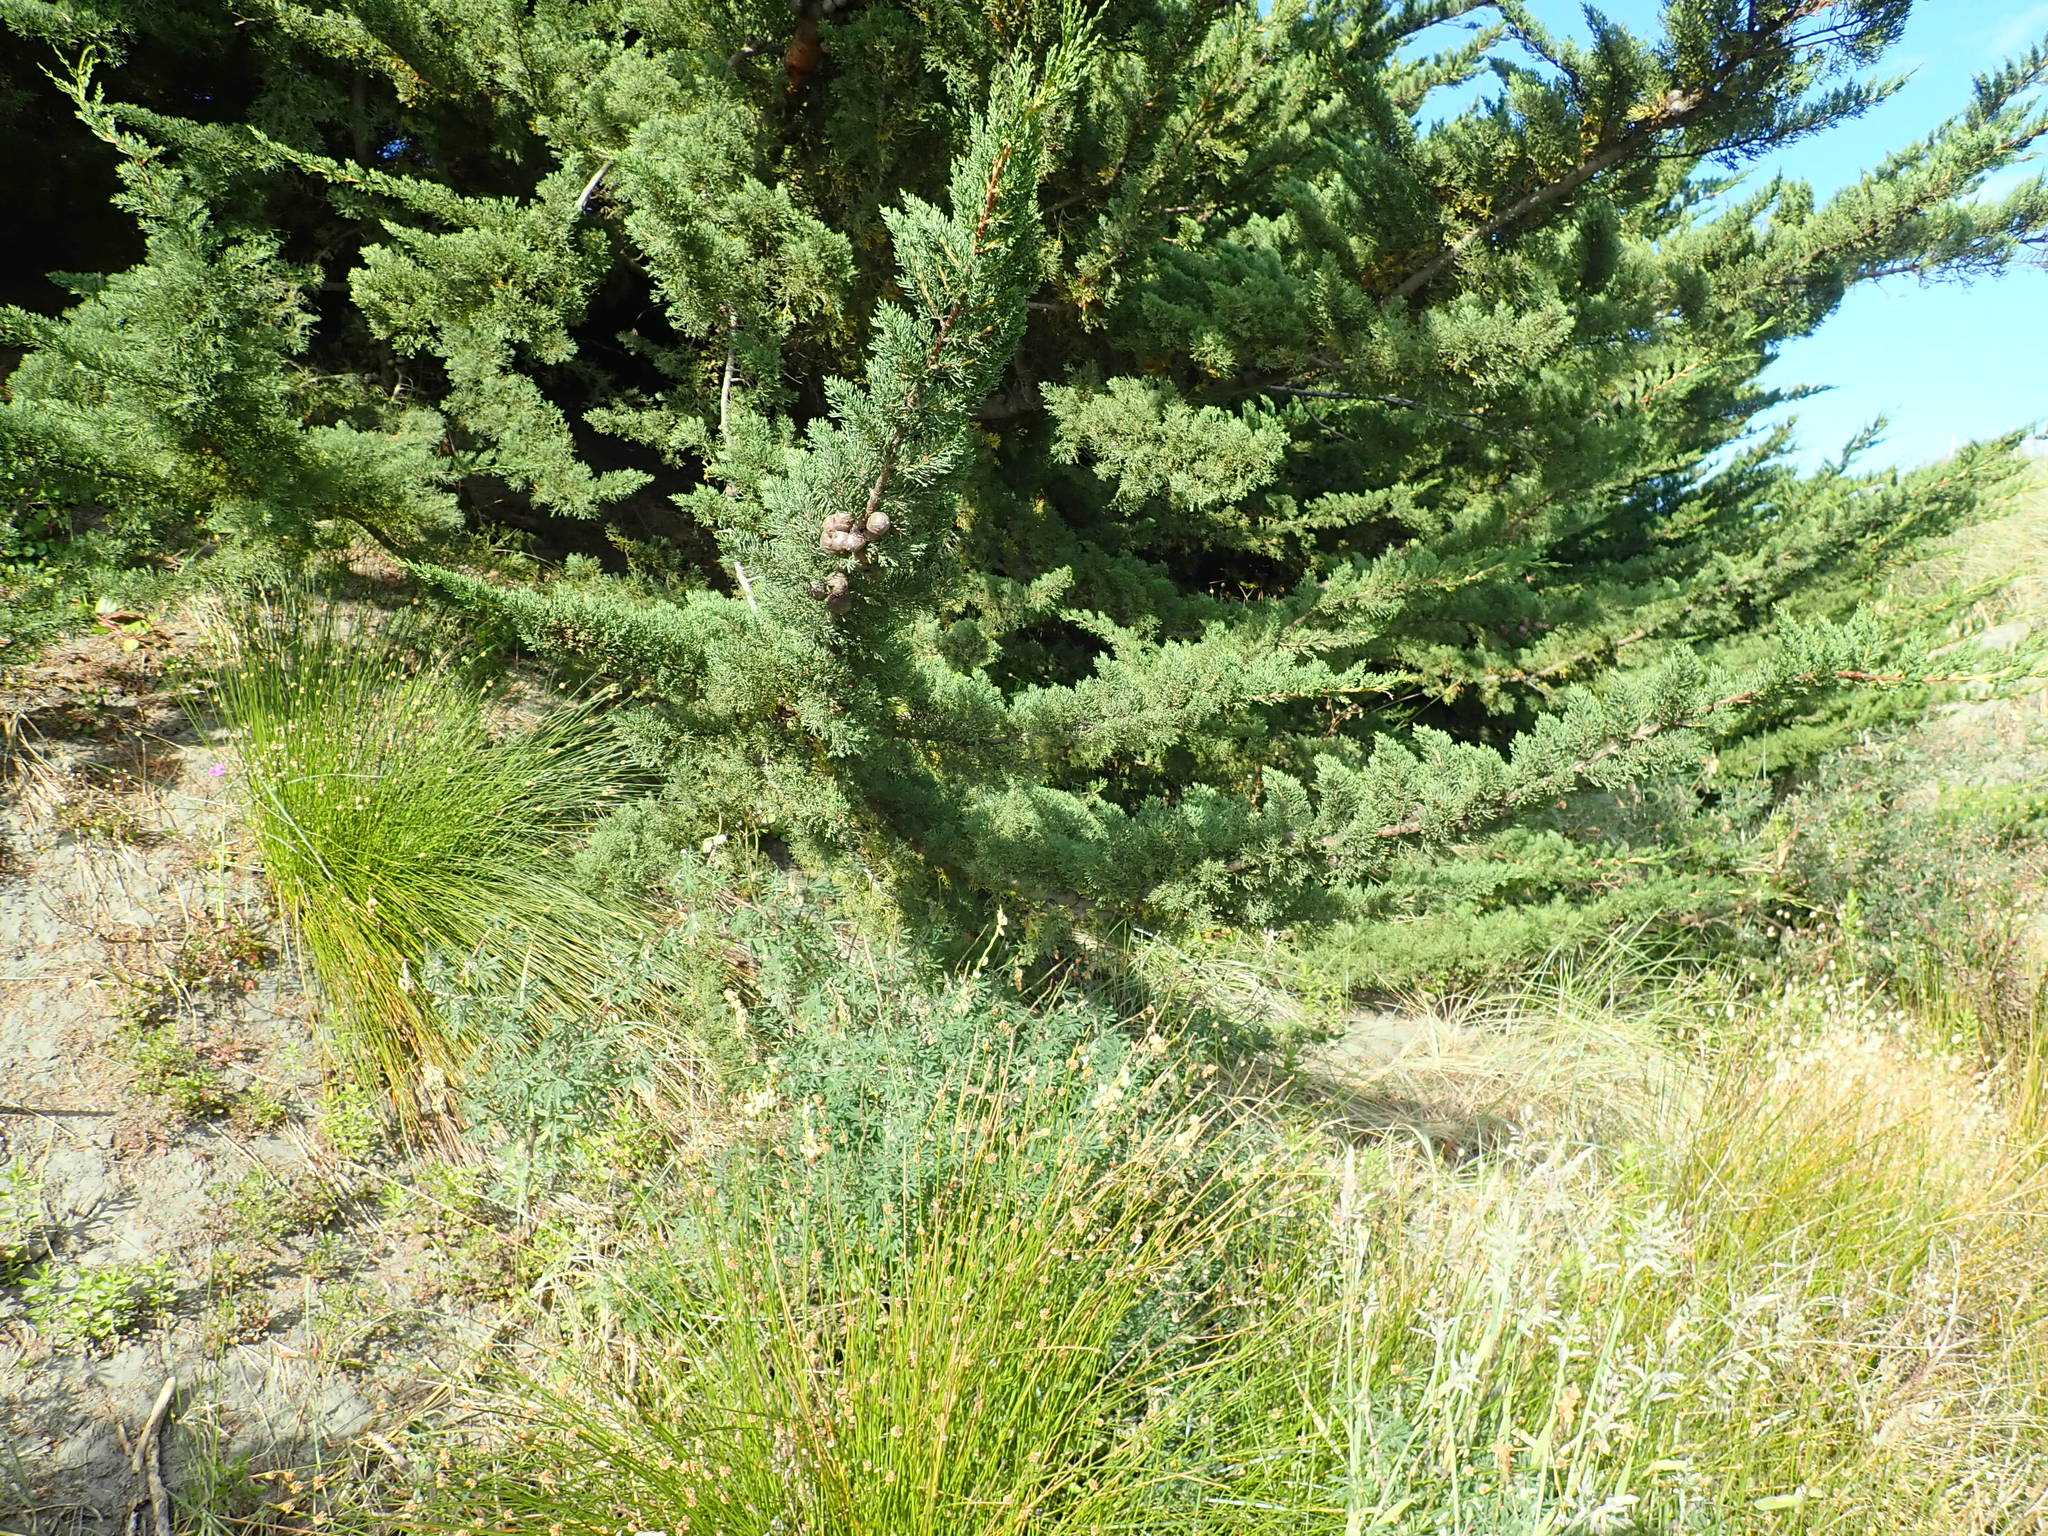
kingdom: Plantae
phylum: Tracheophyta
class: Pinopsida
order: Pinales
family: Cupressaceae
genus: Cupressus
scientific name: Cupressus macrocarpa
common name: Monterey cypress
